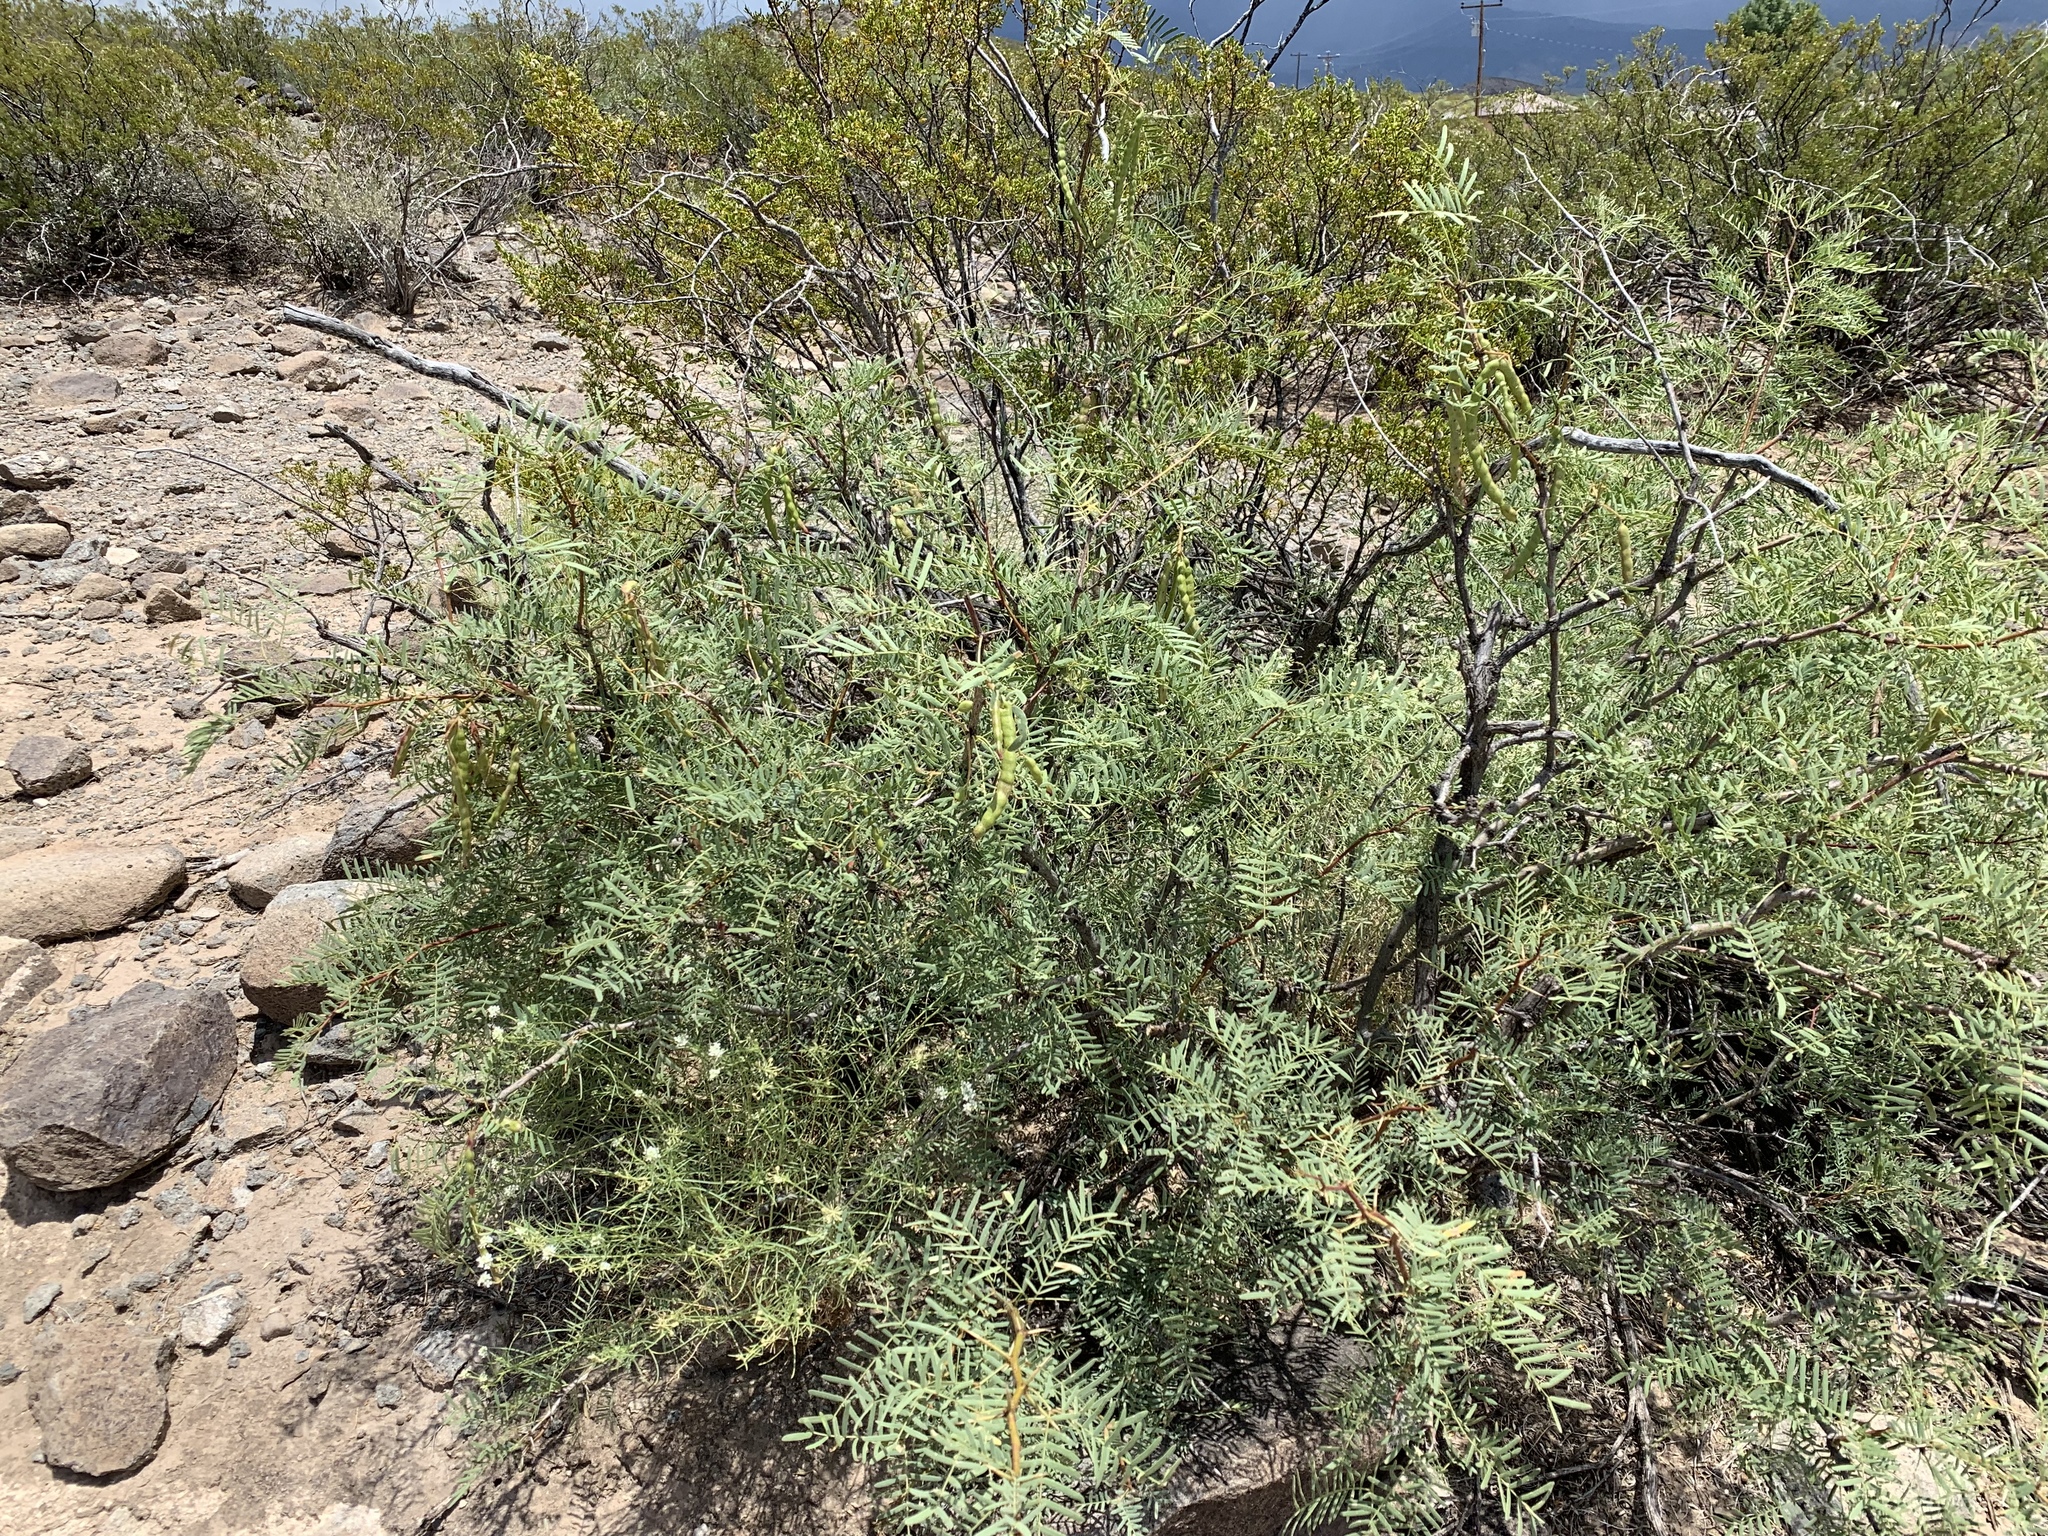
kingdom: Plantae
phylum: Tracheophyta
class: Magnoliopsida
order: Fabales
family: Fabaceae
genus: Prosopis
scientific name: Prosopis glandulosa
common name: Honey mesquite
